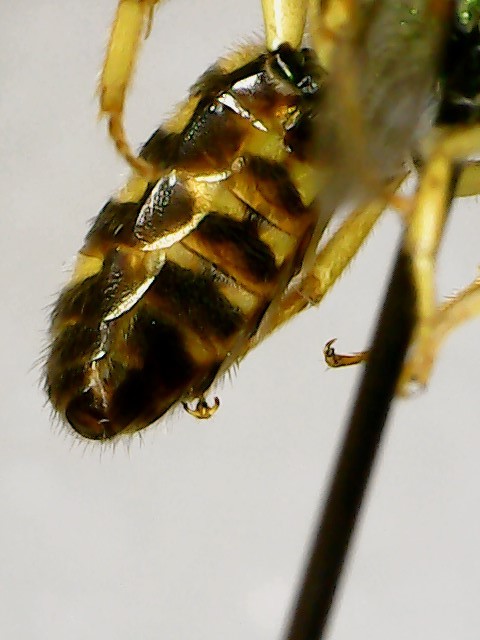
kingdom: Animalia
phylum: Arthropoda
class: Insecta
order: Hymenoptera
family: Halictidae
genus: Agapostemon
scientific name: Agapostemon virescens
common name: Bicolored striped sweat bee
